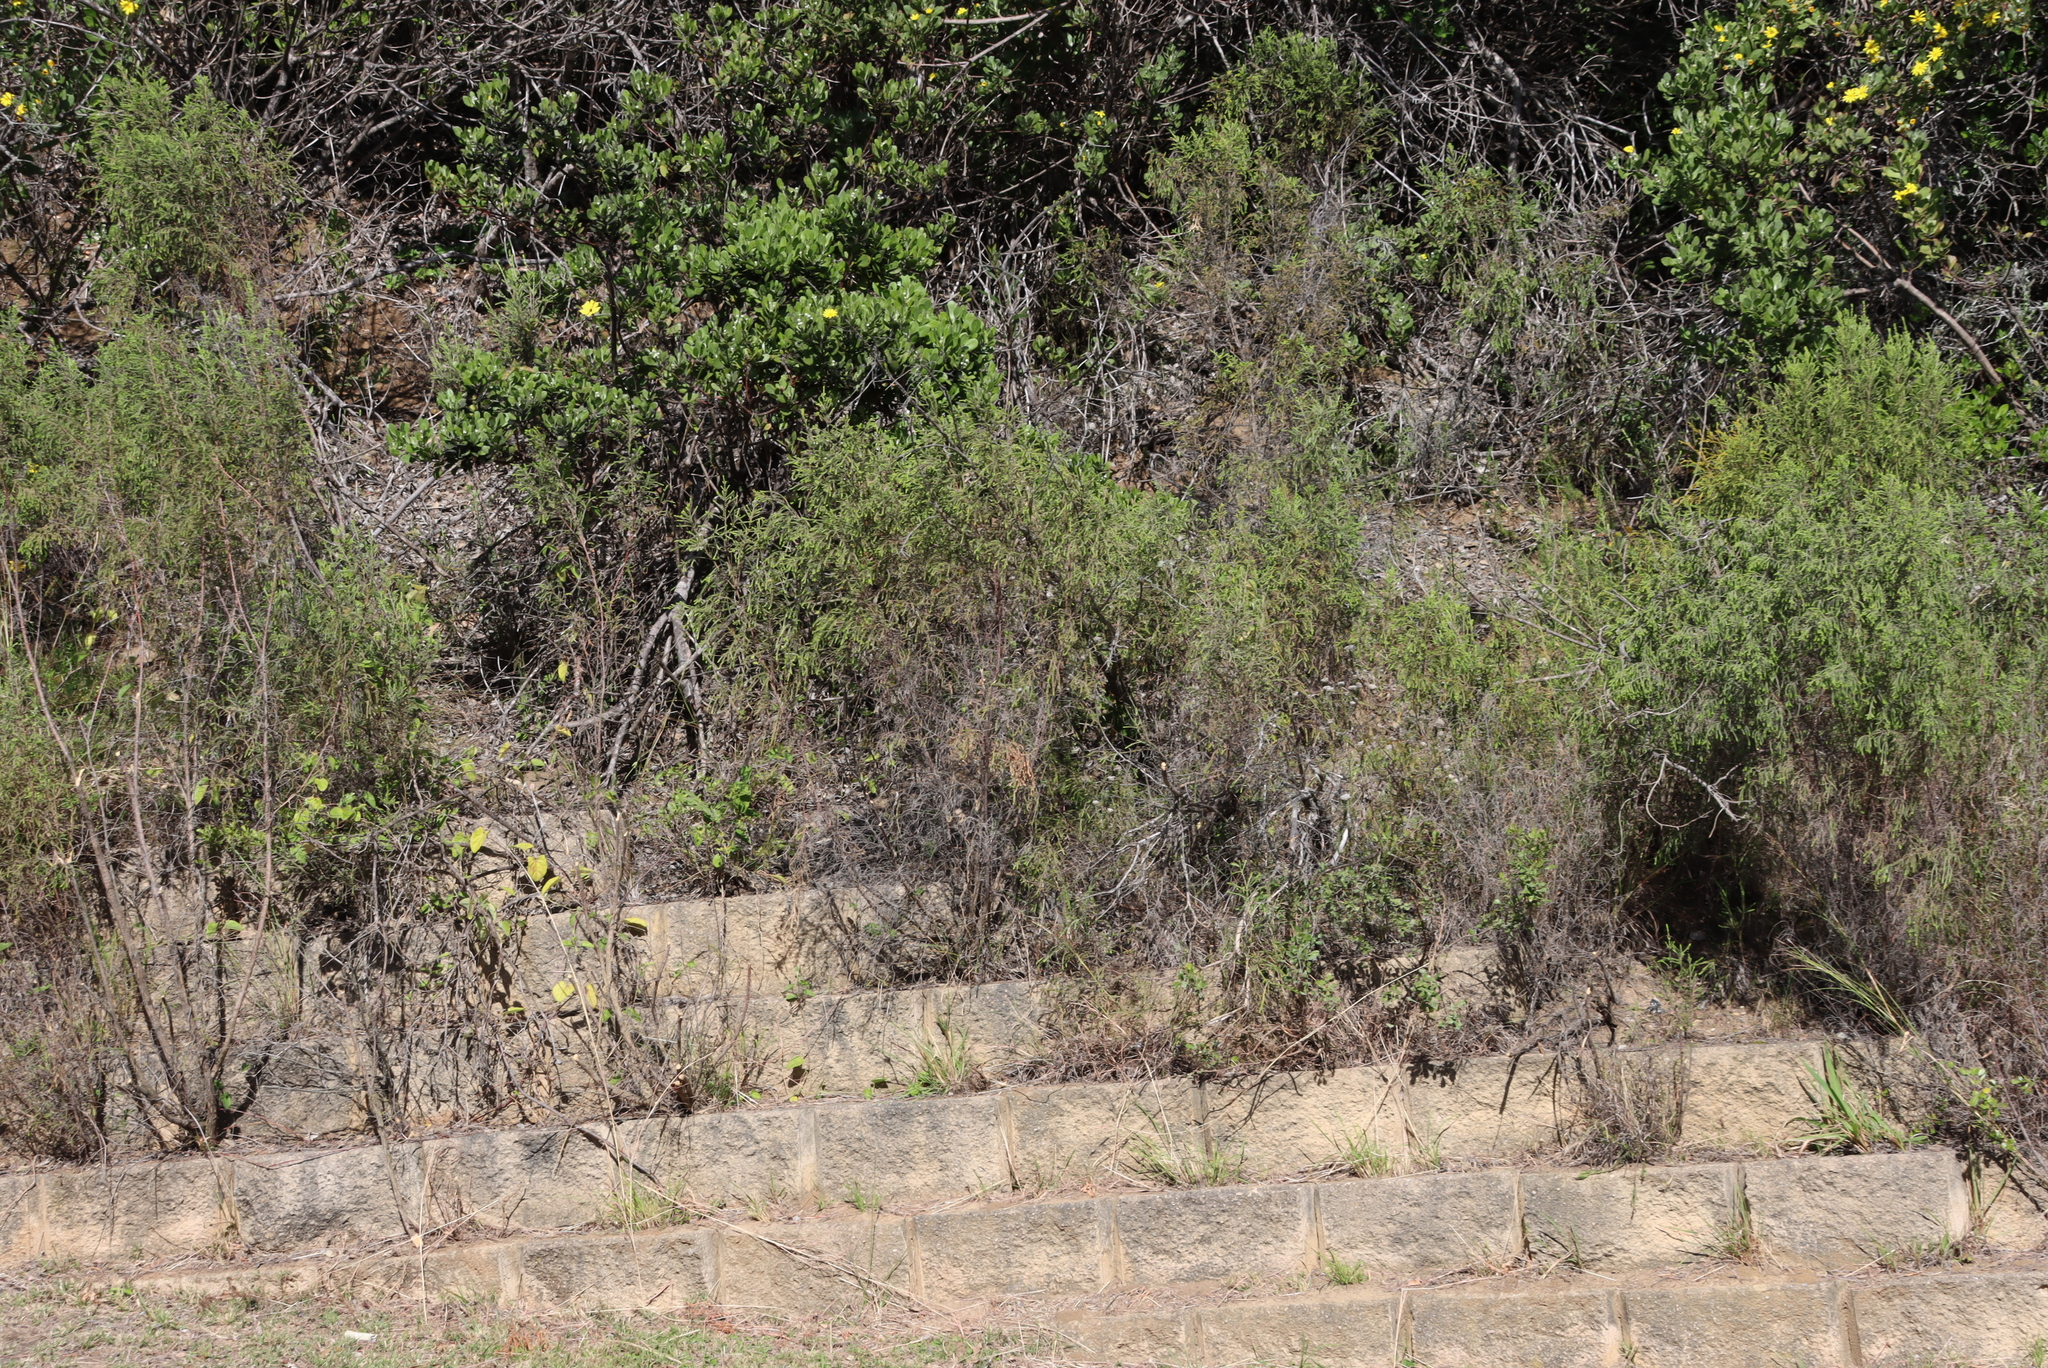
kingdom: Plantae
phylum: Tracheophyta
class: Magnoliopsida
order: Malvales
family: Thymelaeaceae
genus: Passerina
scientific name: Passerina falcifolia
